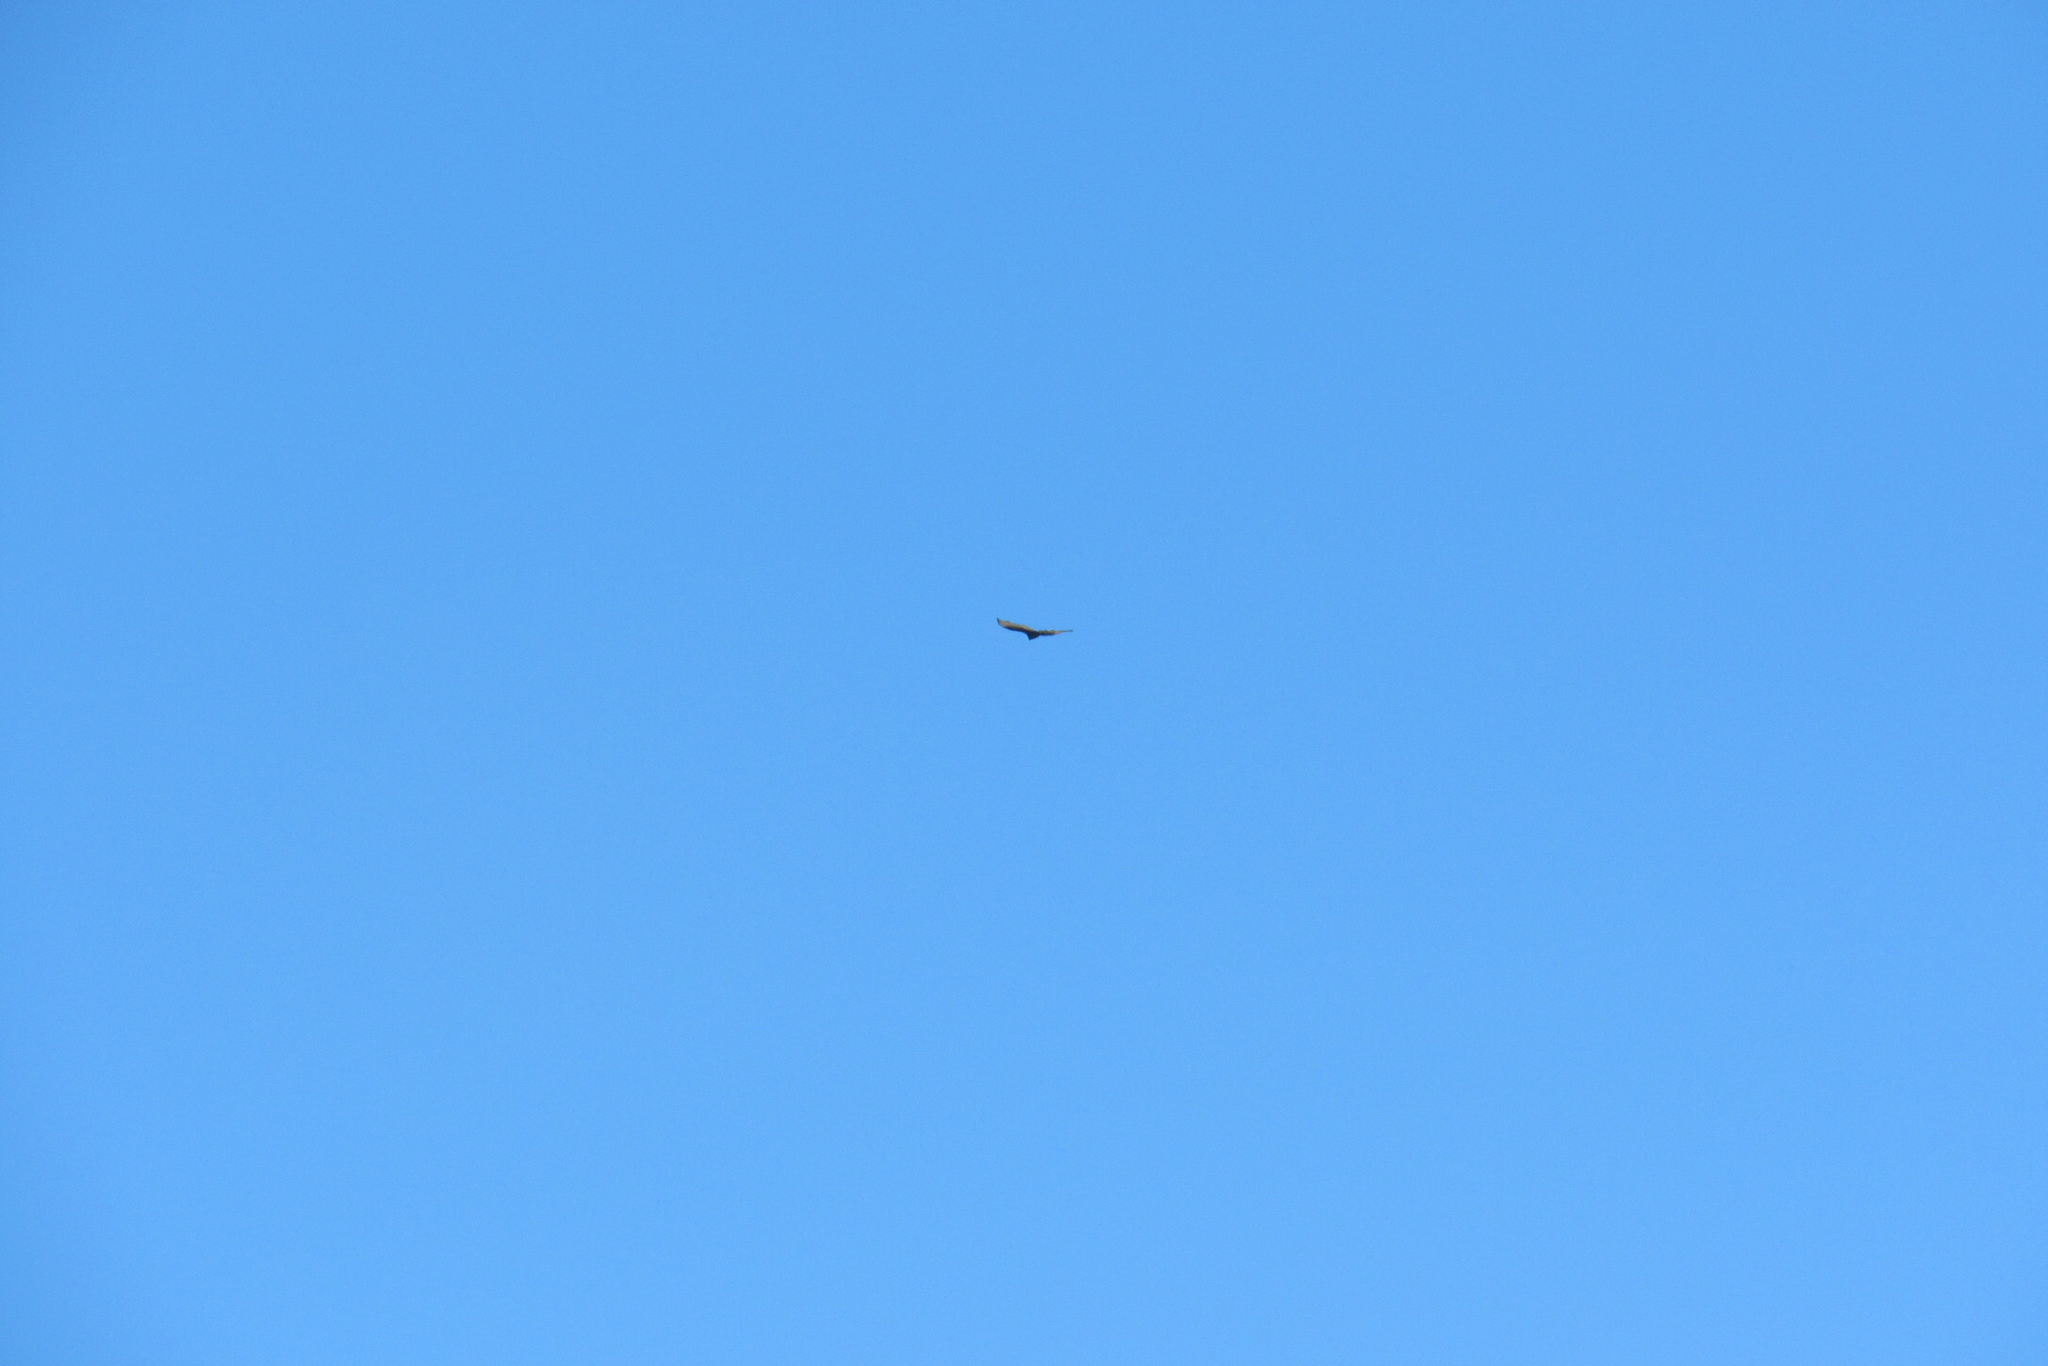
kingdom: Animalia
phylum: Chordata
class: Aves
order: Accipitriformes
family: Cathartidae
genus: Cathartes
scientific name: Cathartes aura
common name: Turkey vulture
